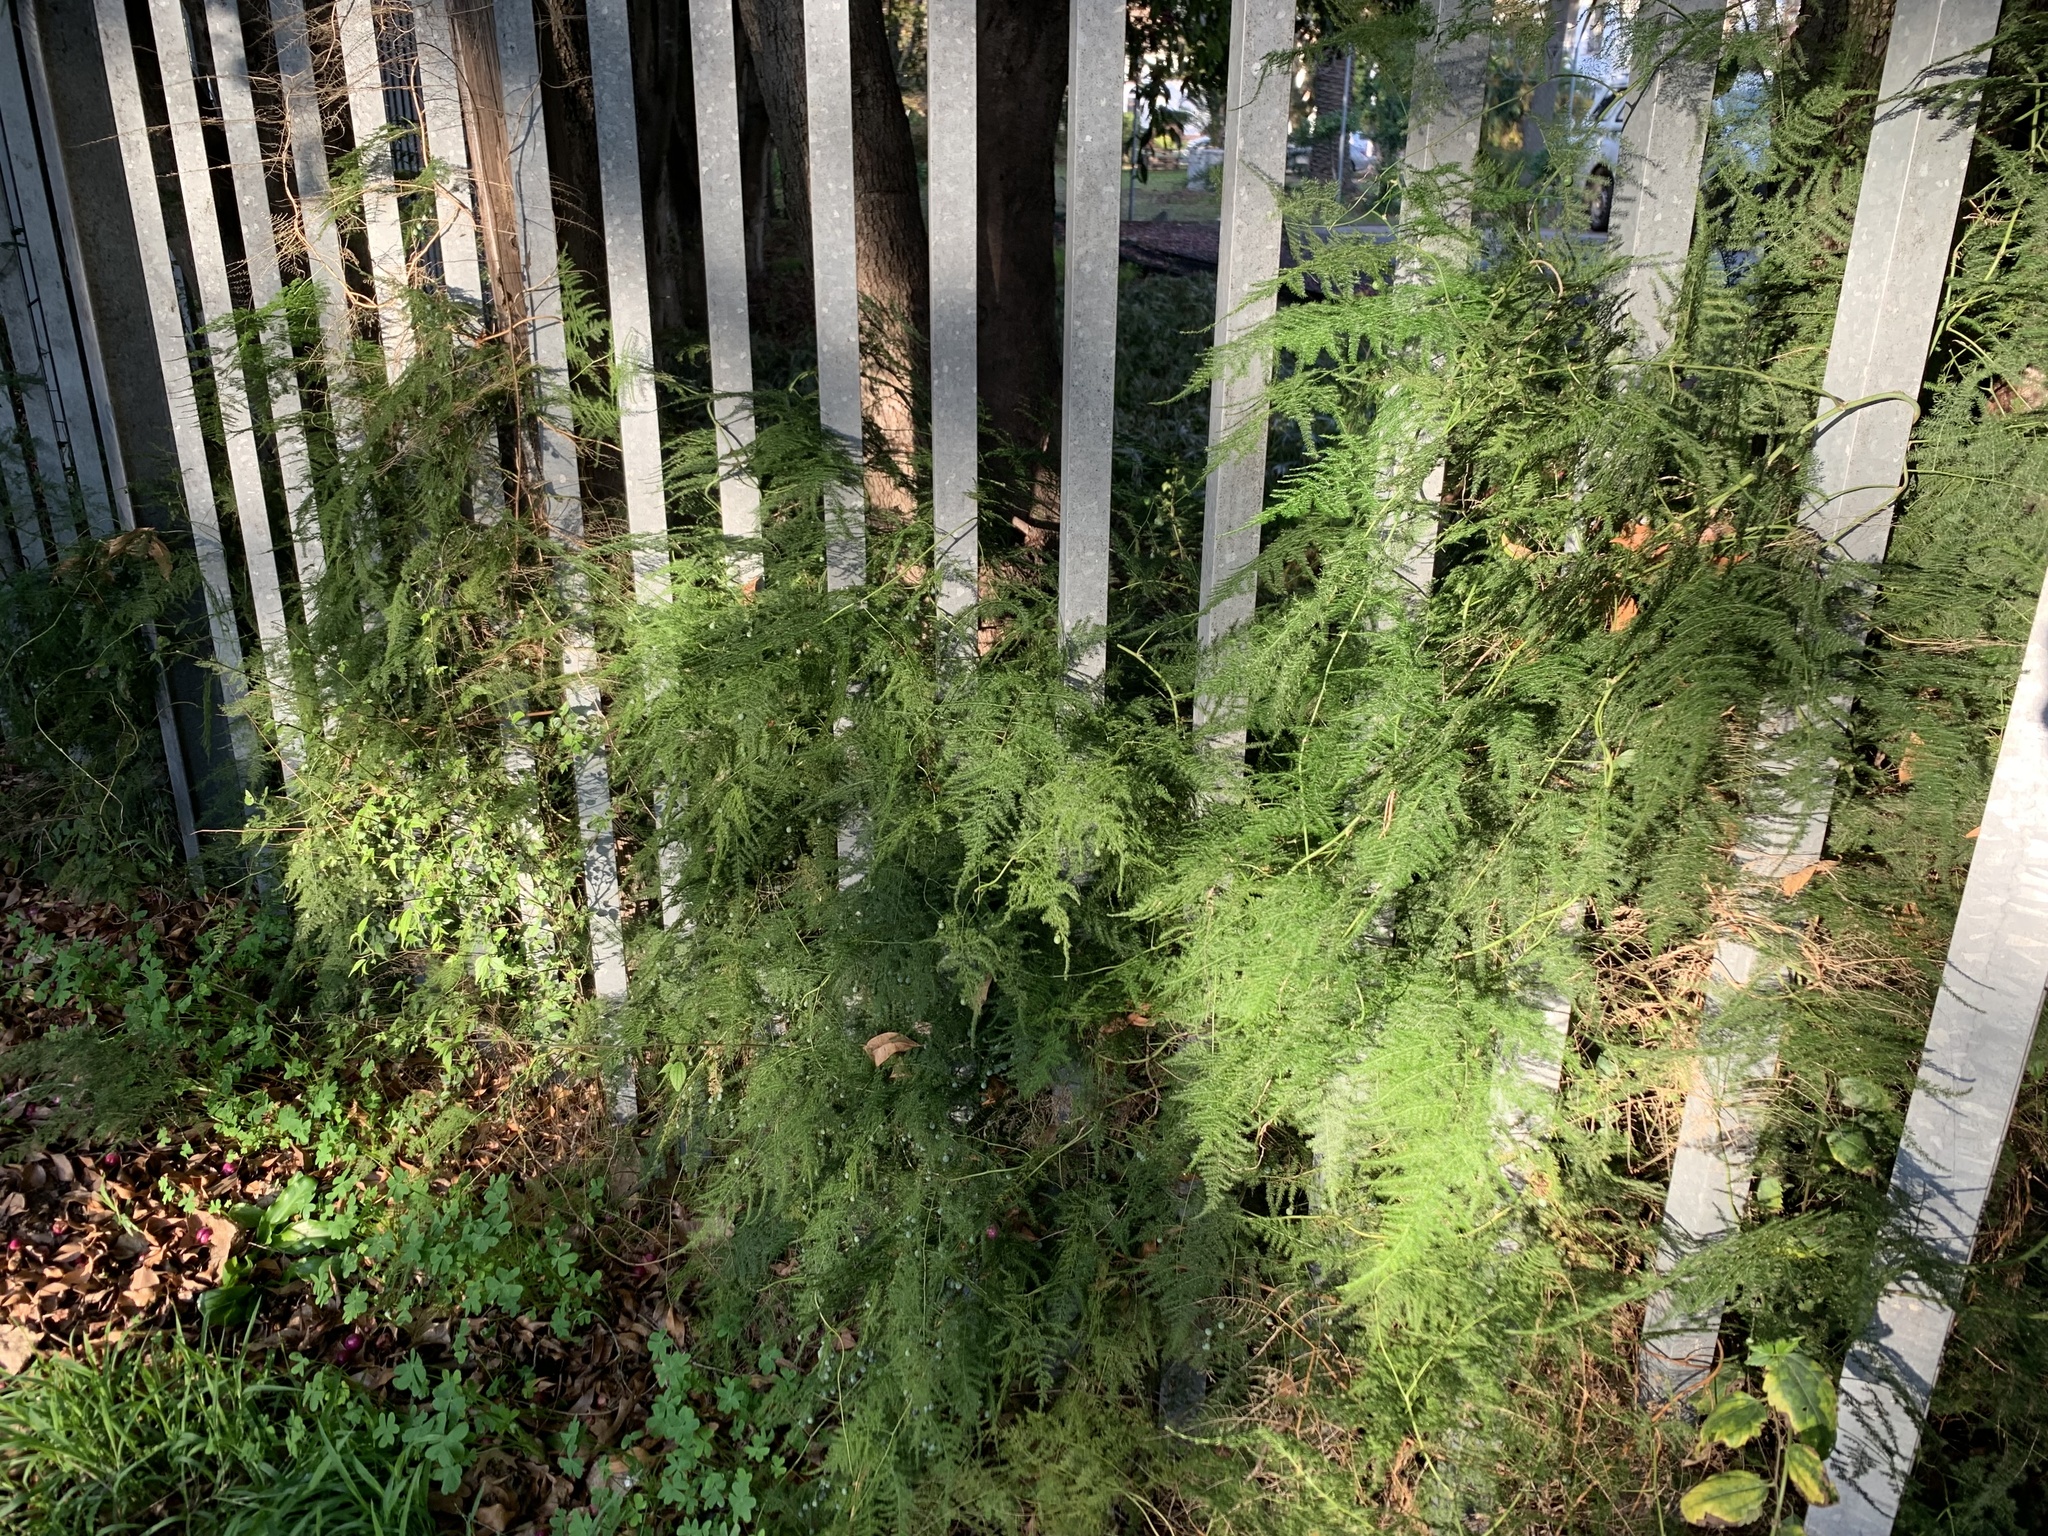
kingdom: Plantae
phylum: Tracheophyta
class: Liliopsida
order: Asparagales
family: Asparagaceae
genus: Asparagus
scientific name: Asparagus setaceus
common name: Common asparagus fern
